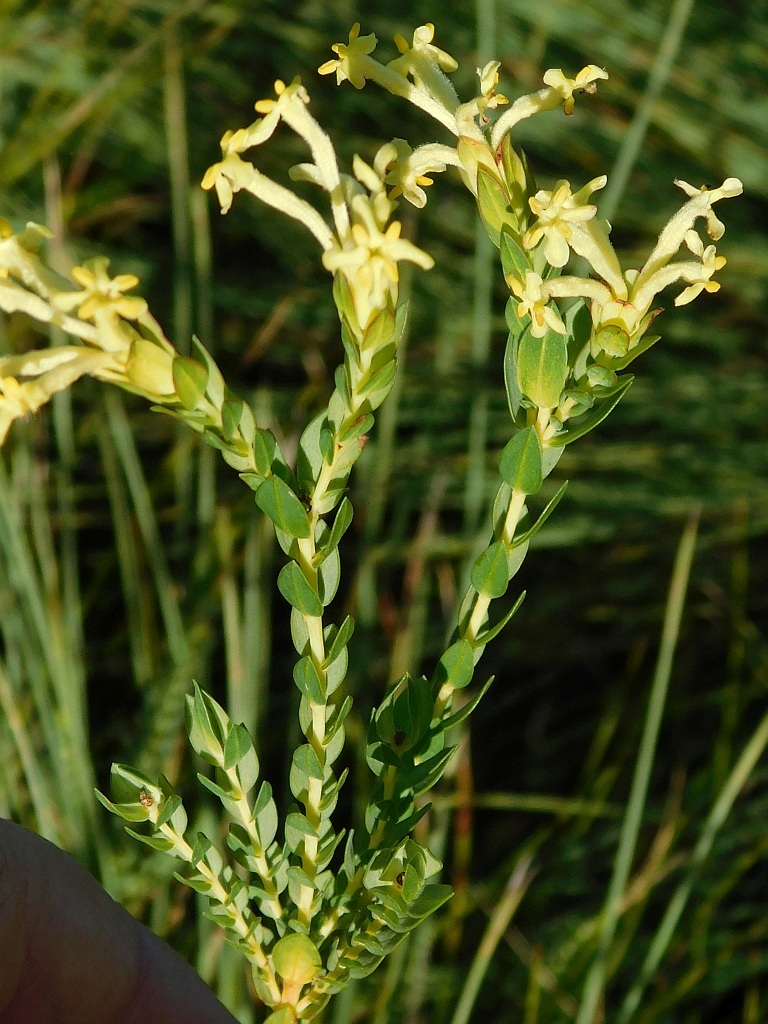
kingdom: Plantae
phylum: Tracheophyta
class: Magnoliopsida
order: Malvales
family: Thymelaeaceae
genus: Gnidia
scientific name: Gnidia oppositifolia
